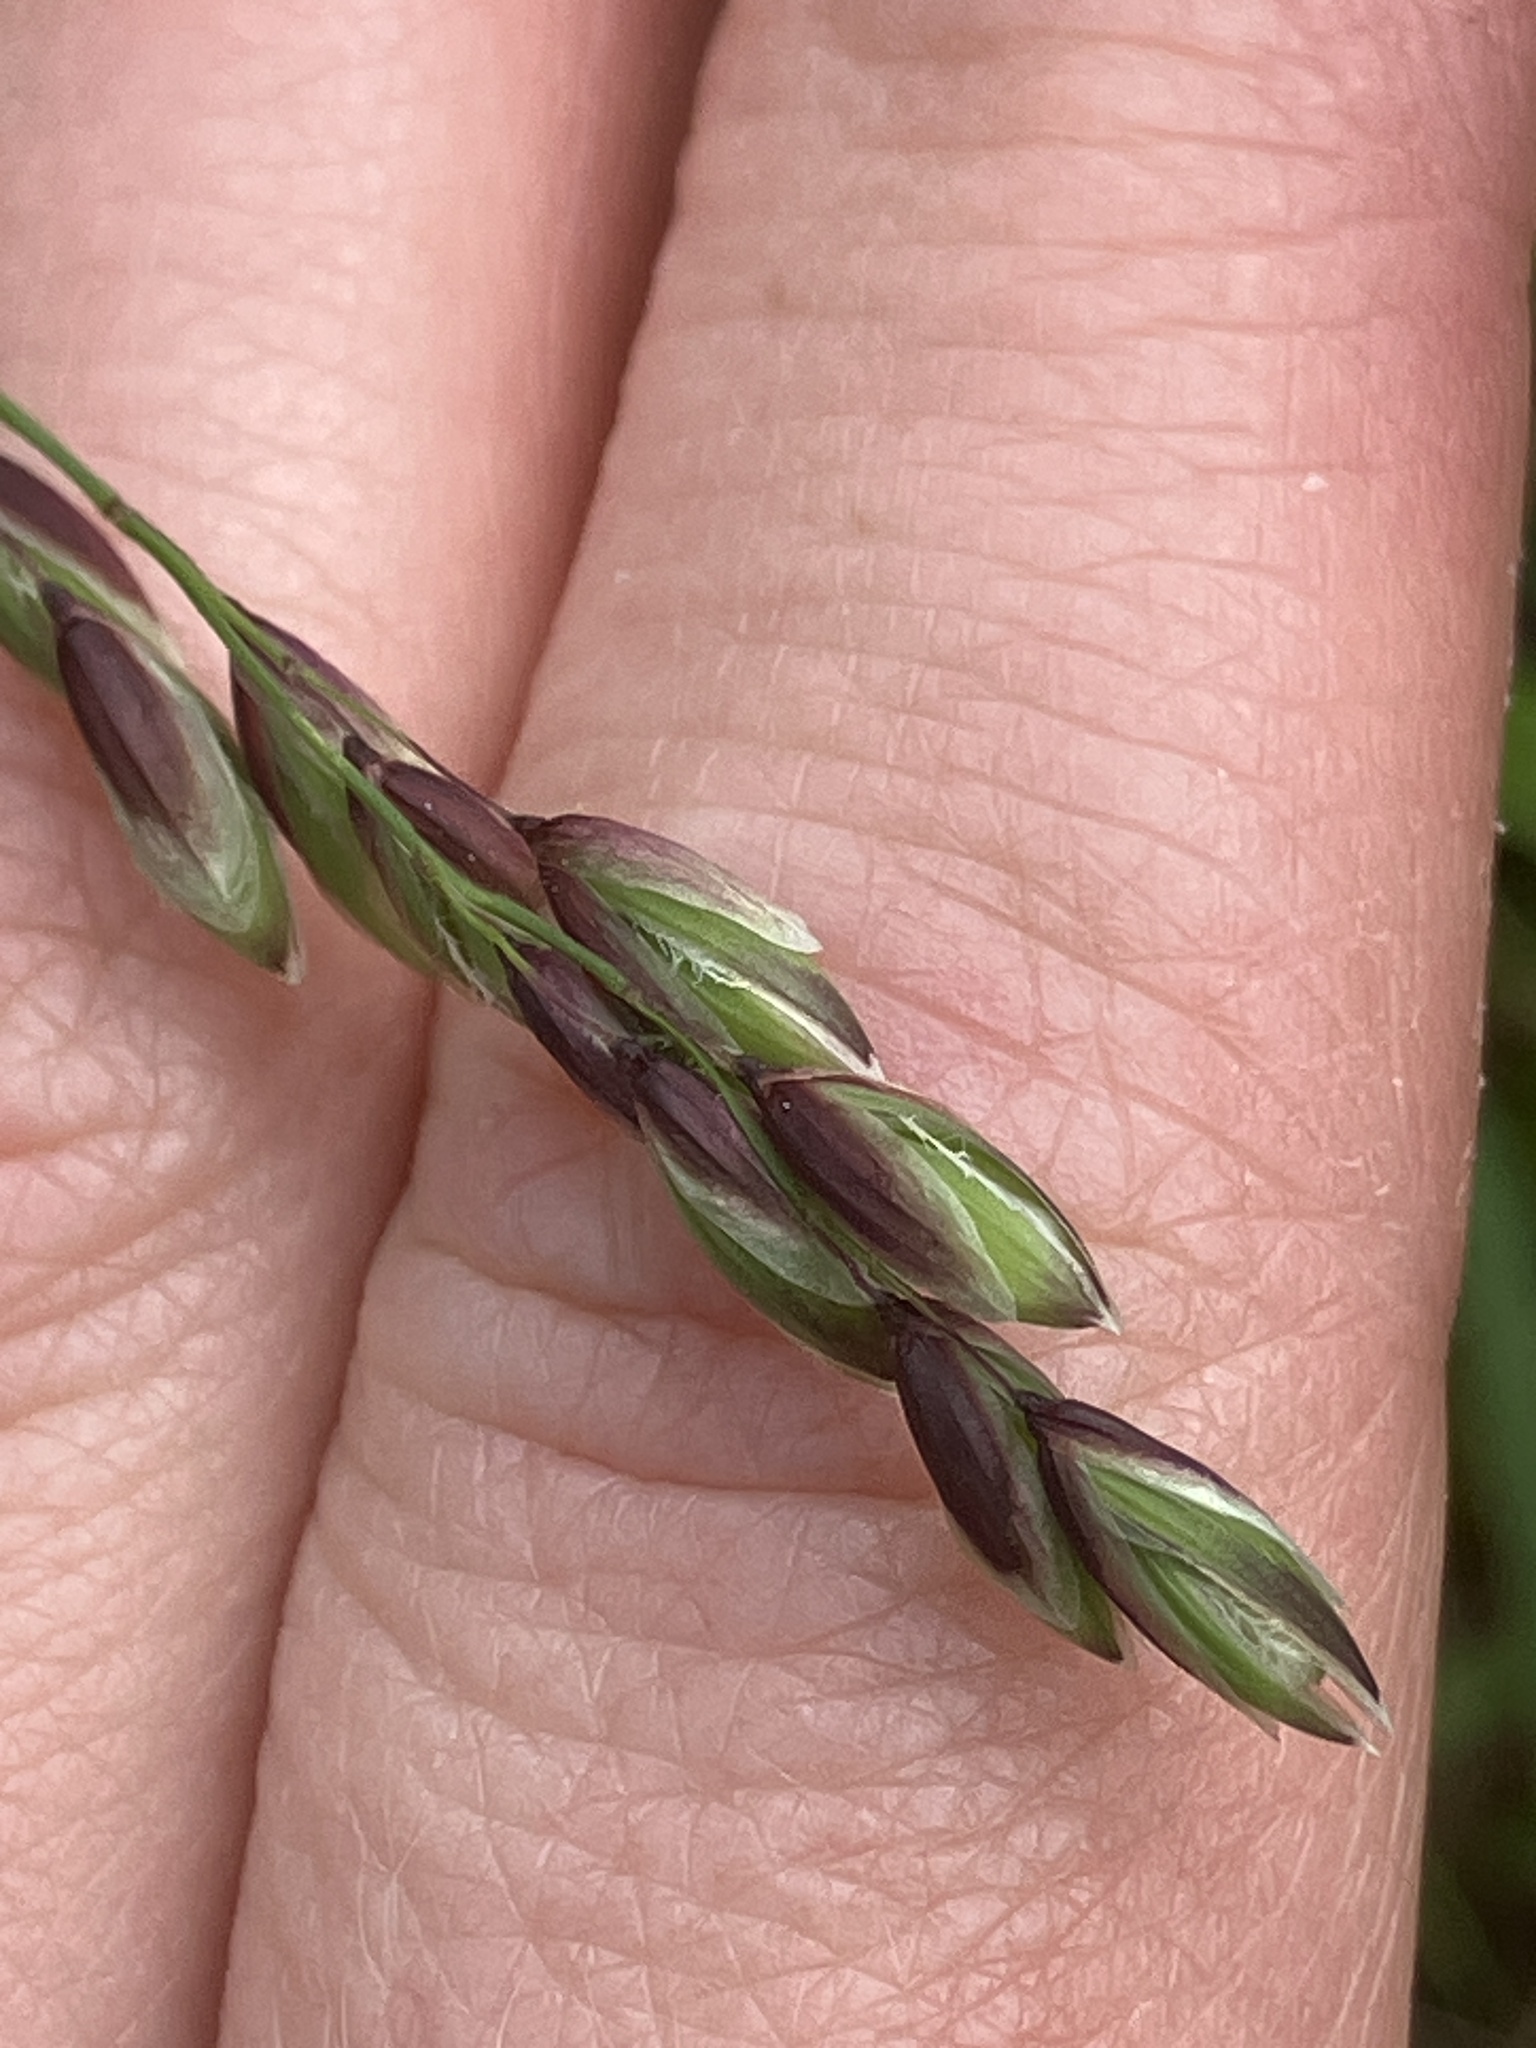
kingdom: Plantae
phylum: Tracheophyta
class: Liliopsida
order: Poales
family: Poaceae
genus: Melica
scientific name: Melica nutans
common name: Mountain melick
